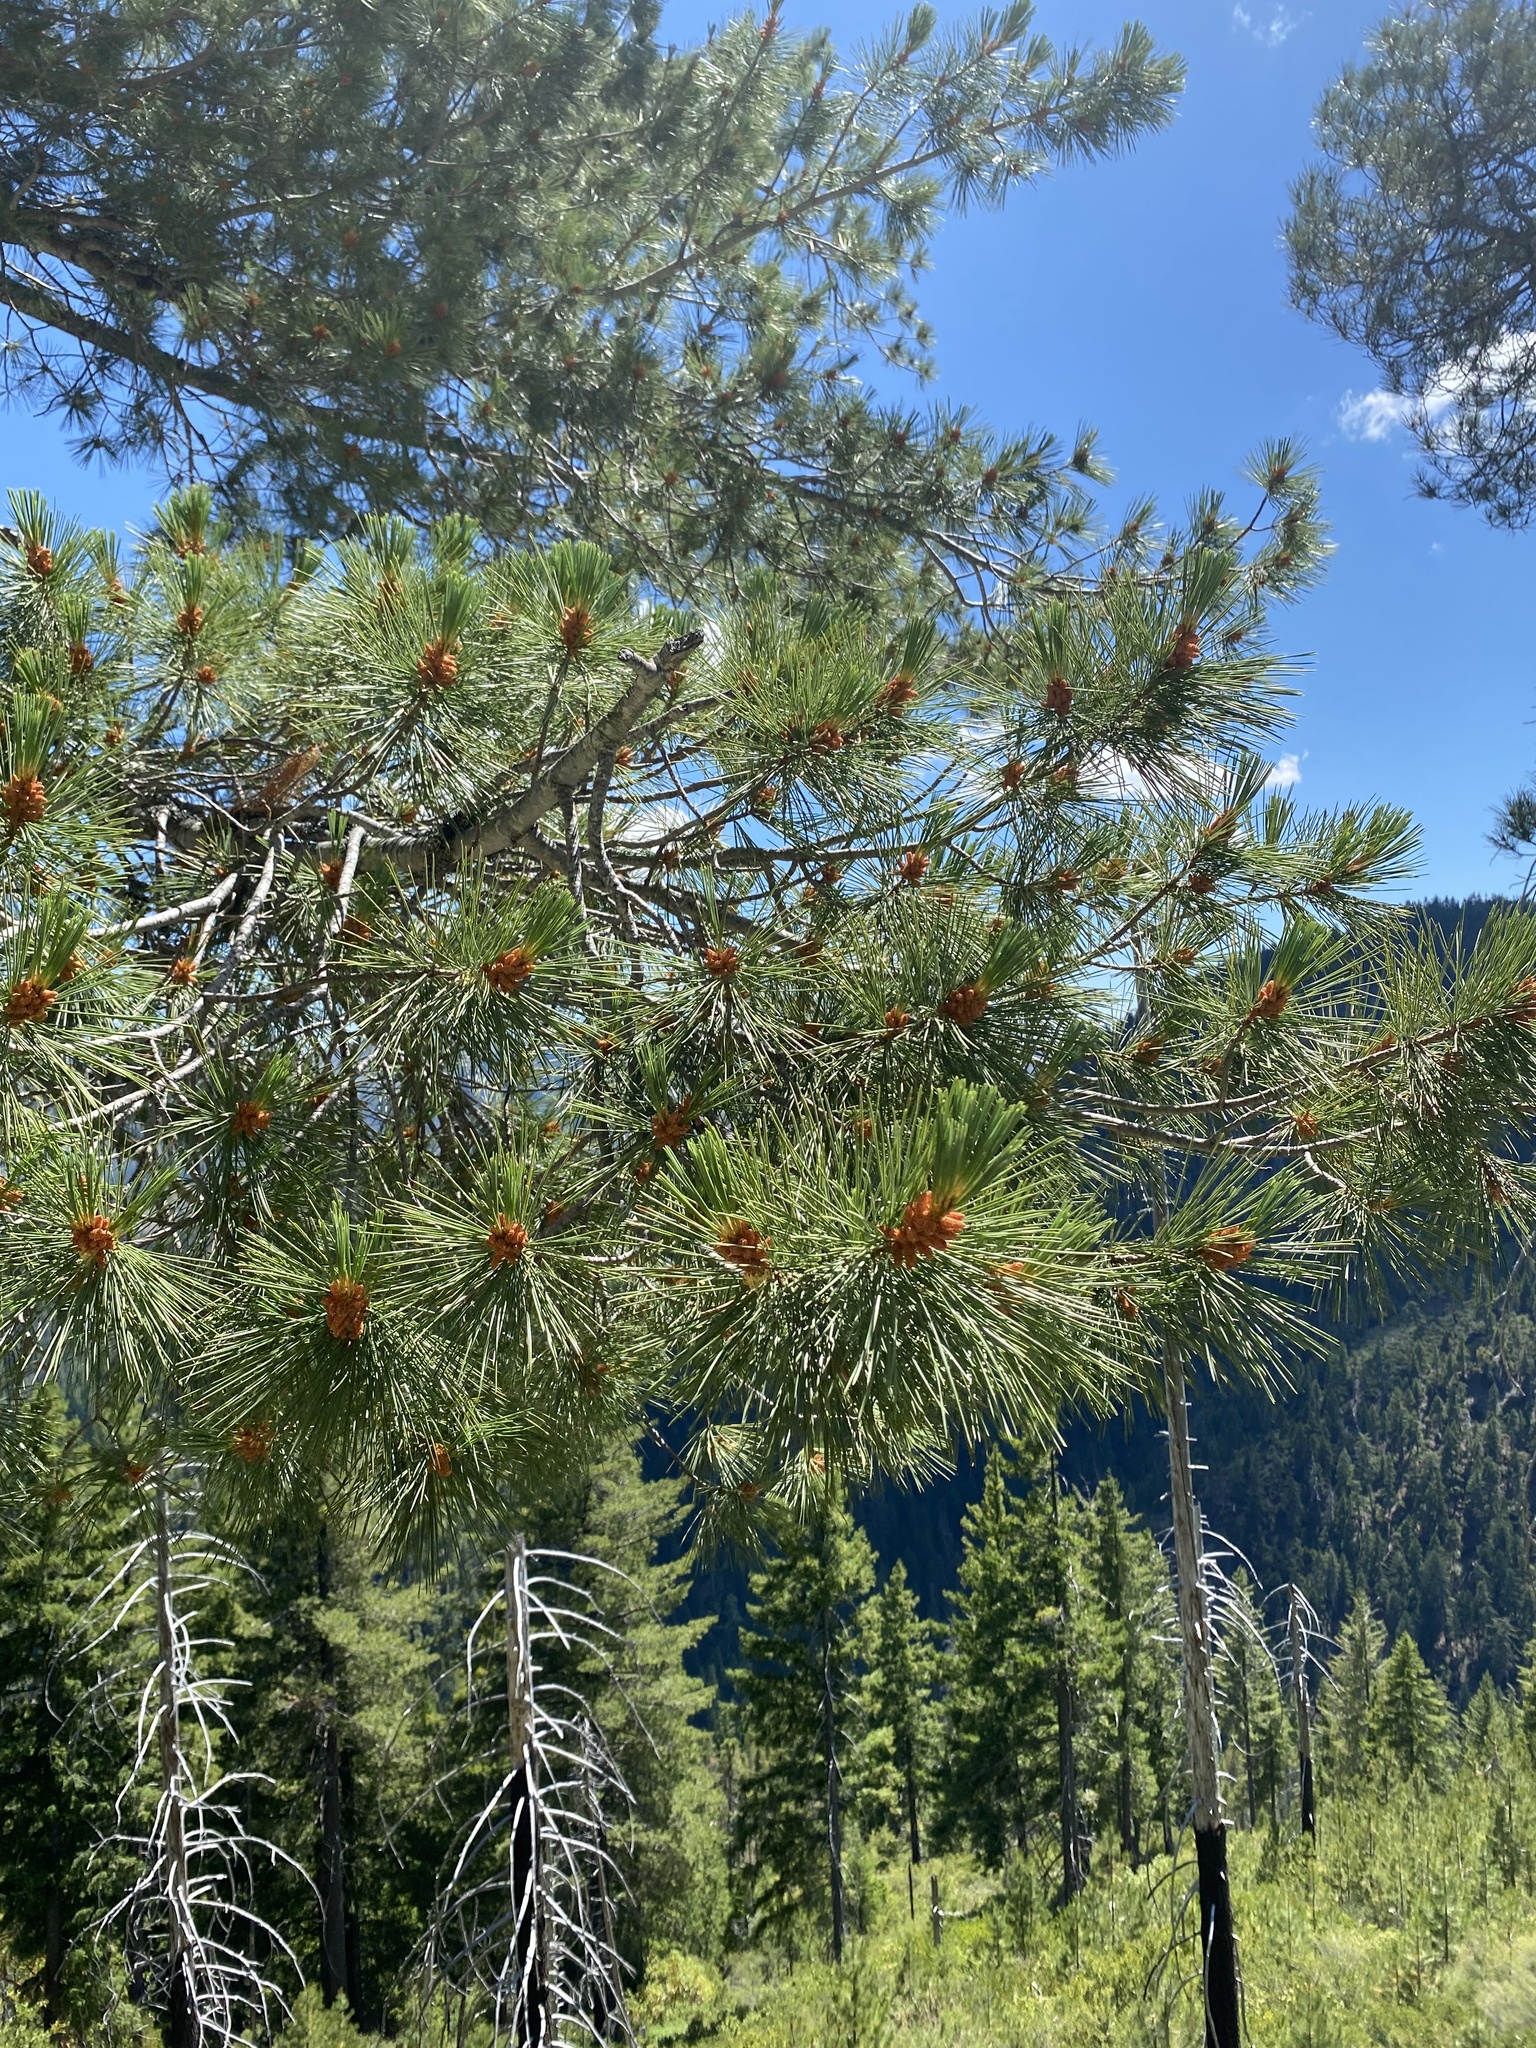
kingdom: Plantae
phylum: Tracheophyta
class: Pinopsida
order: Pinales
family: Pinaceae
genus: Pinus
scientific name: Pinus lambertiana
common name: Sugar pine
